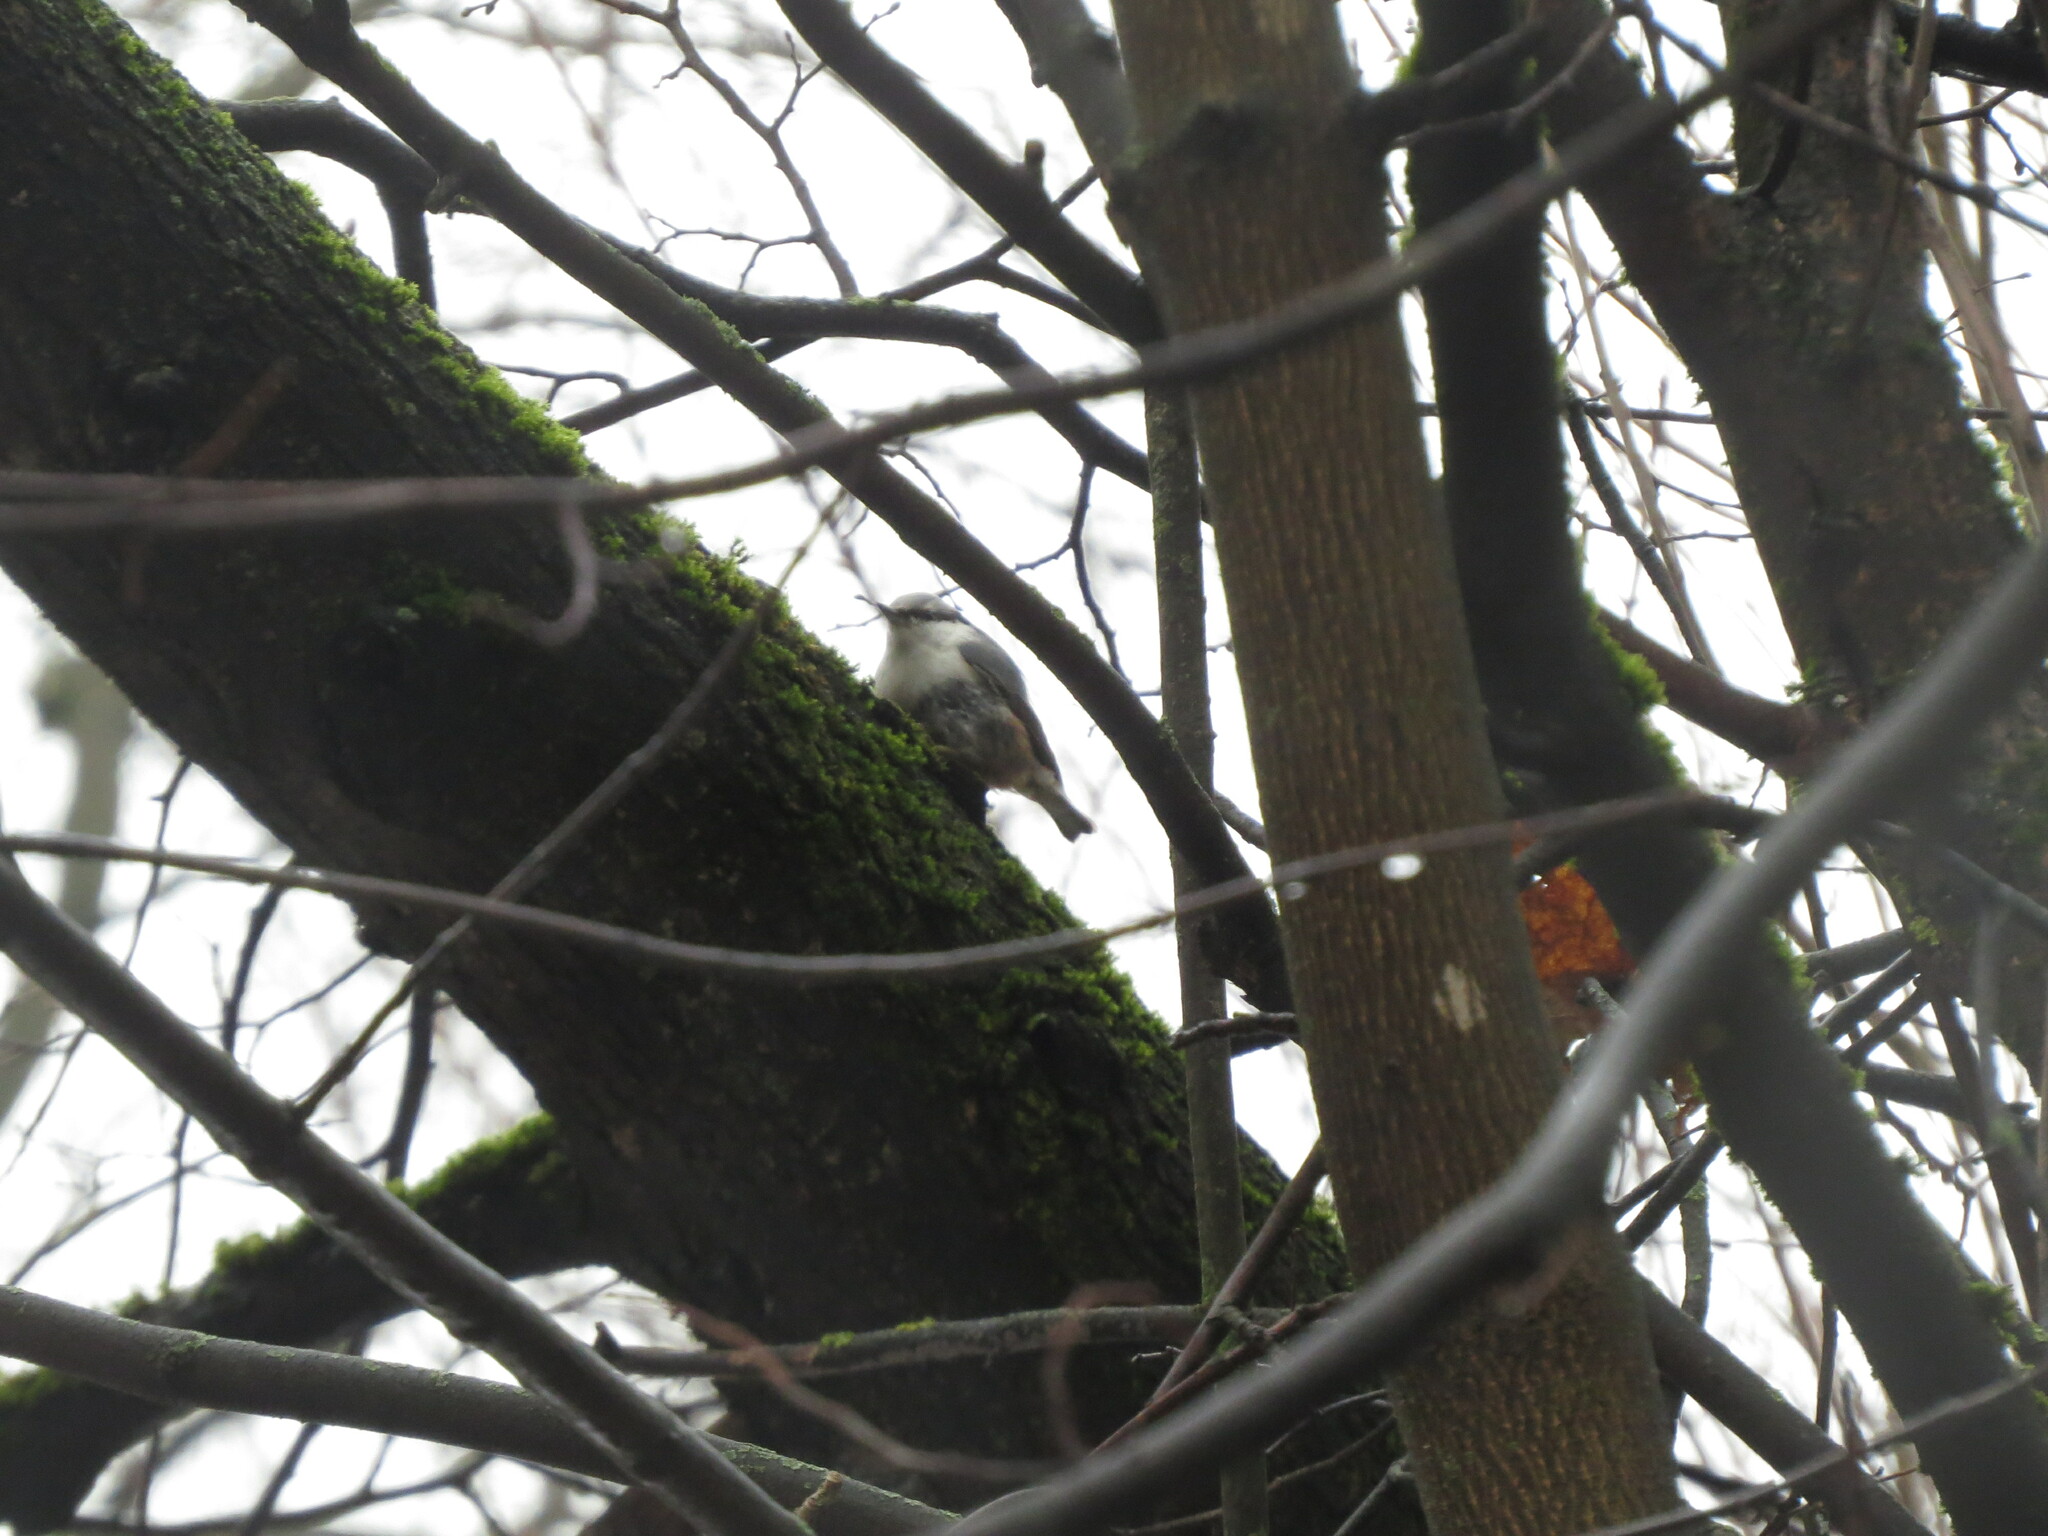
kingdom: Animalia
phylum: Chordata
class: Aves
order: Passeriformes
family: Sittidae
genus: Sitta
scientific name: Sitta europaea
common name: Eurasian nuthatch
